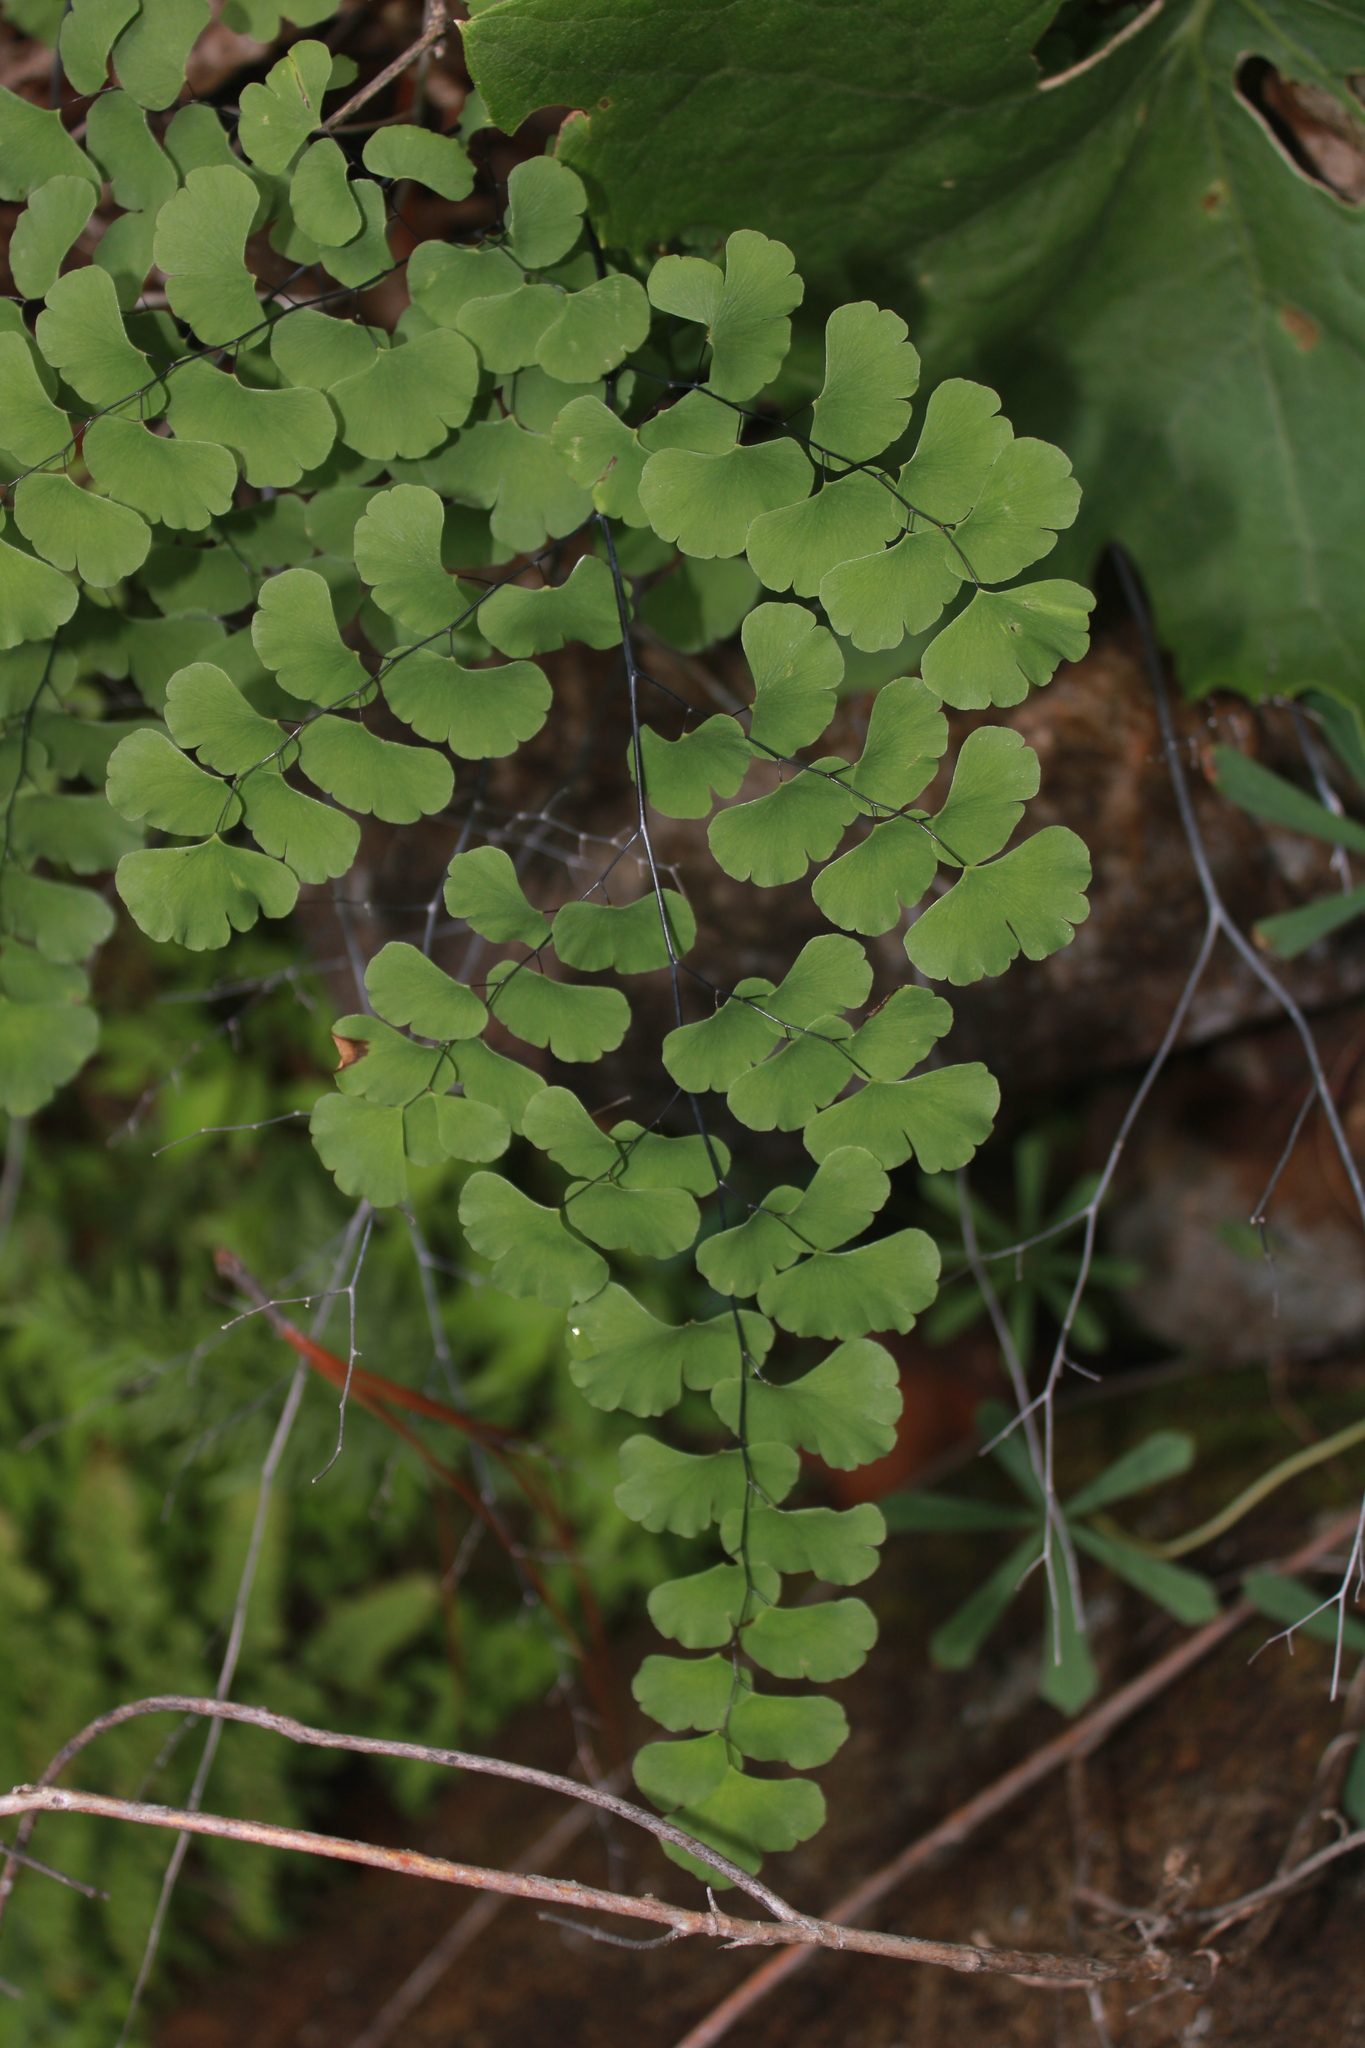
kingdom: Plantae
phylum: Tracheophyta
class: Polypodiopsida
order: Polypodiales
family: Pteridaceae
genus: Adiantum
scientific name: Adiantum braunii
